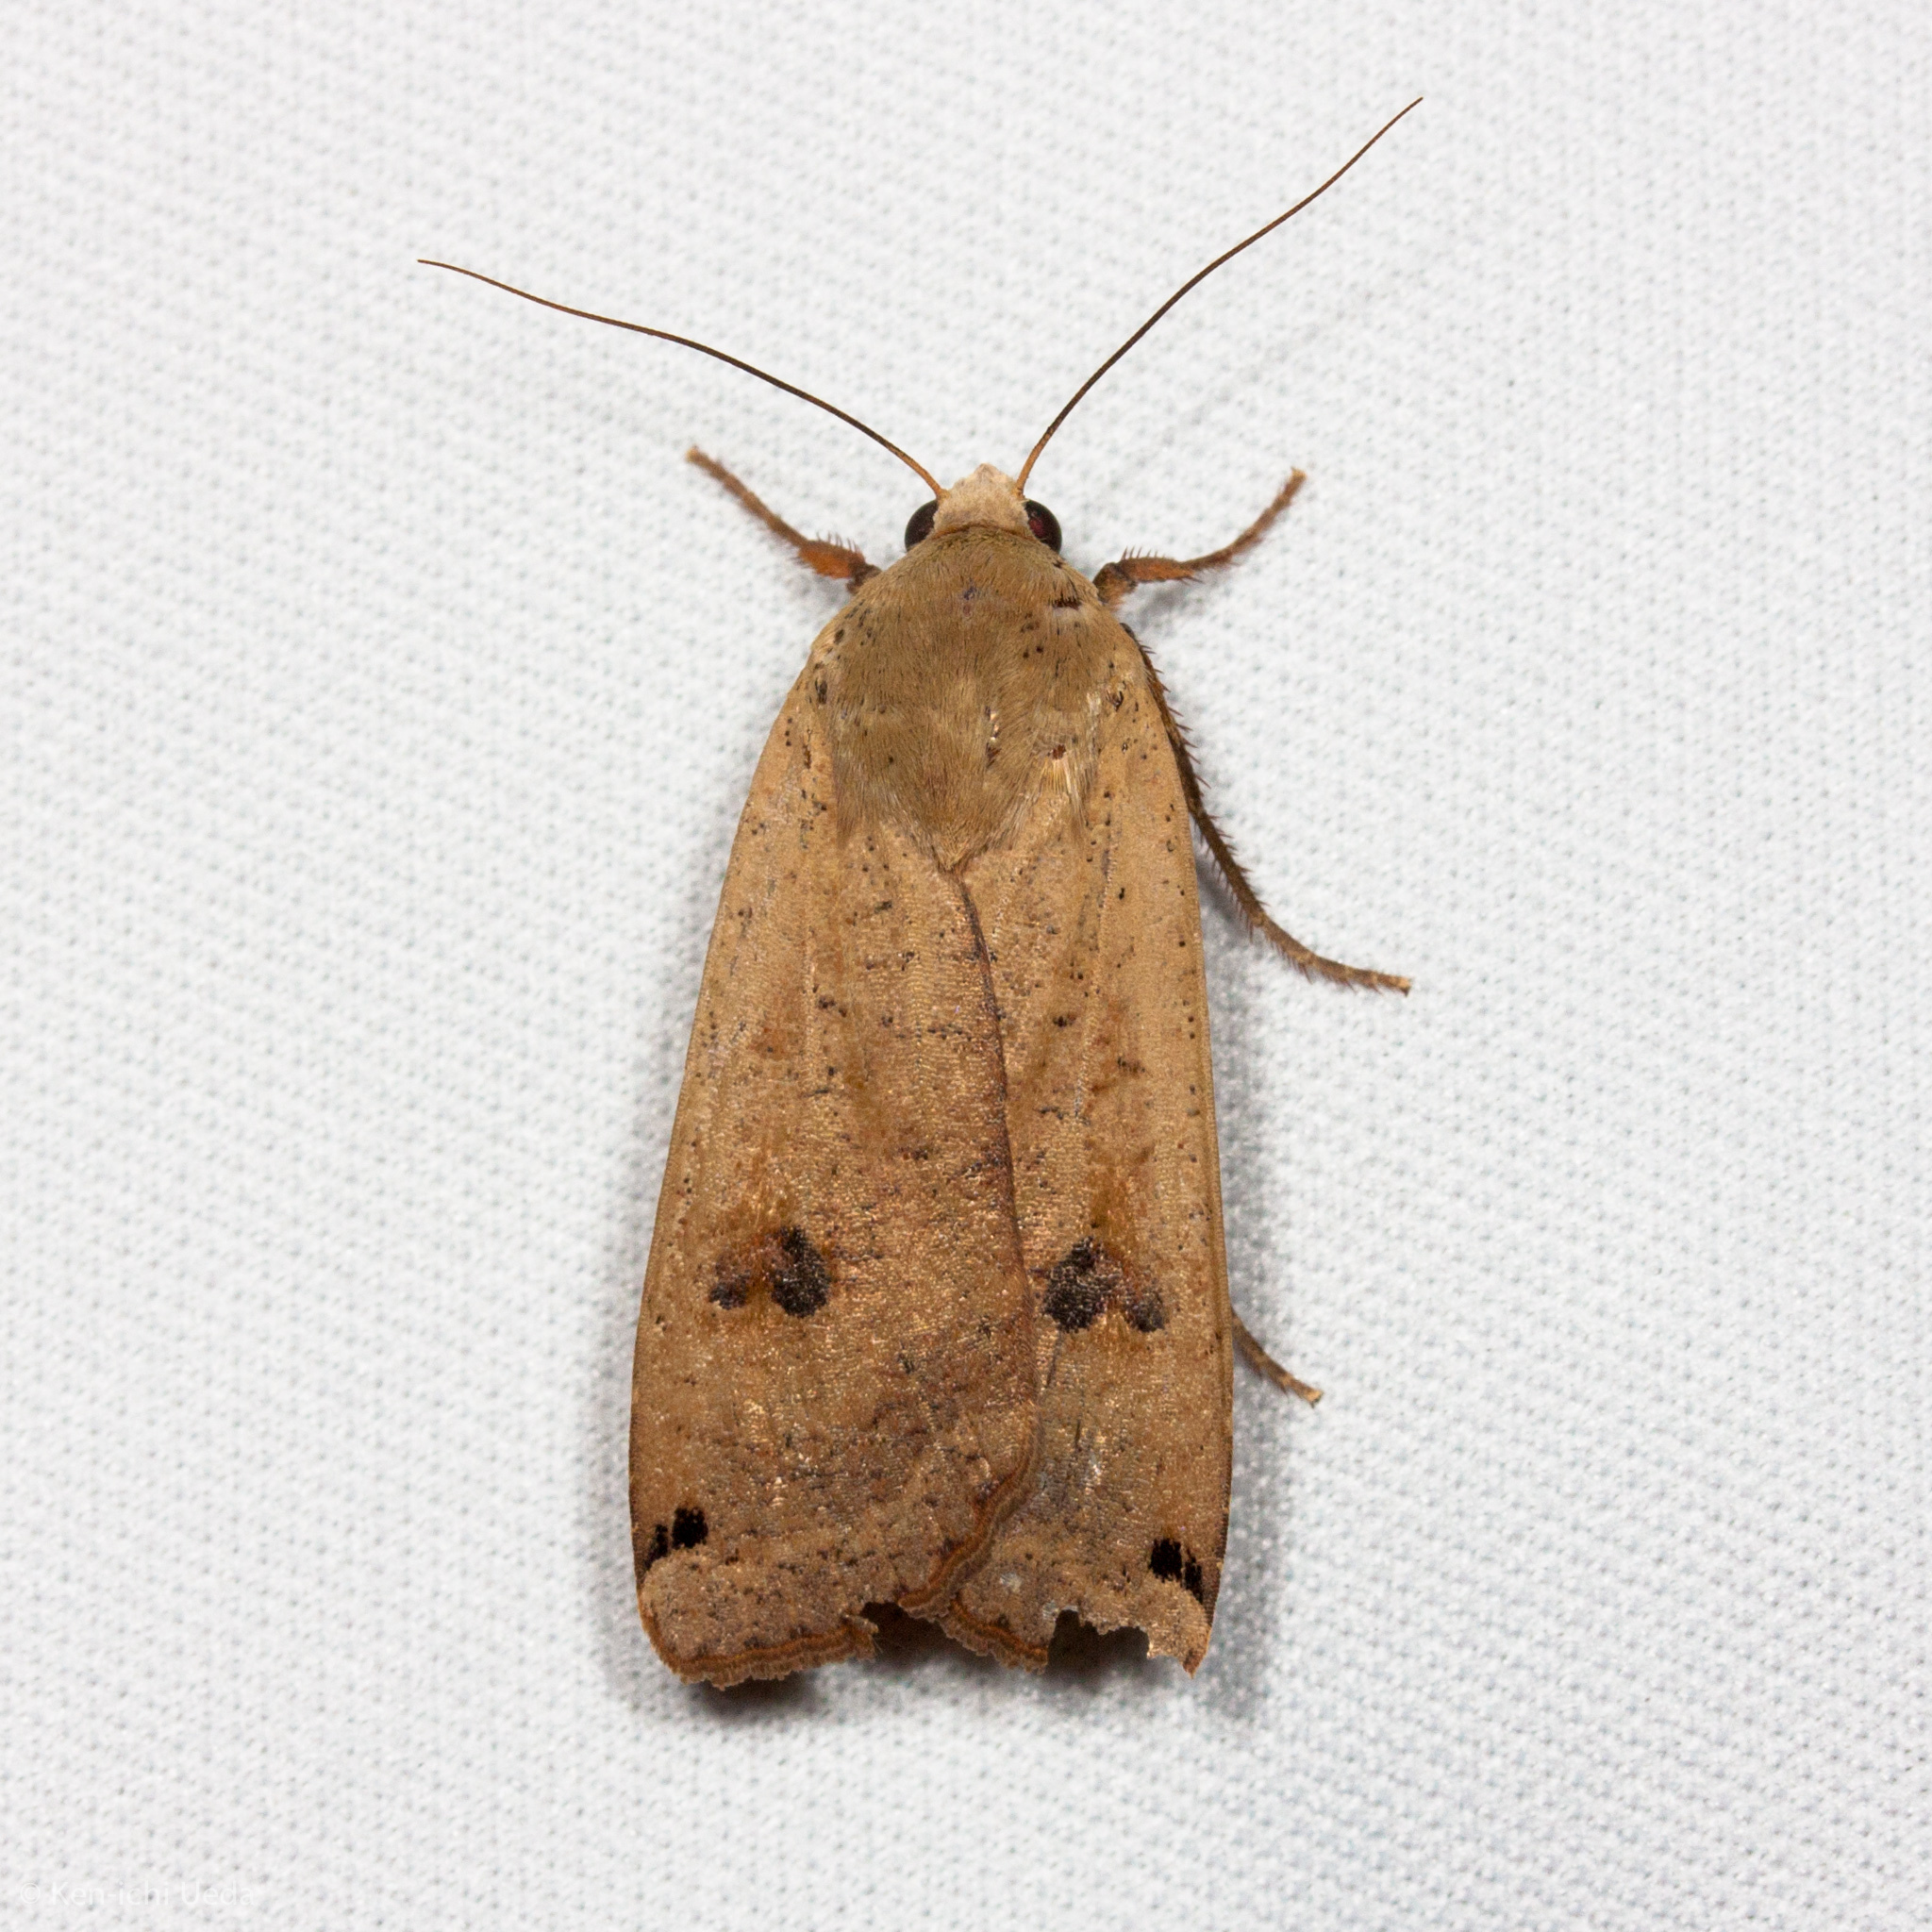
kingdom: Animalia
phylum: Arthropoda
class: Insecta
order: Lepidoptera
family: Noctuidae
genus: Noctua
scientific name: Noctua pronuba
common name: Large yellow underwing
